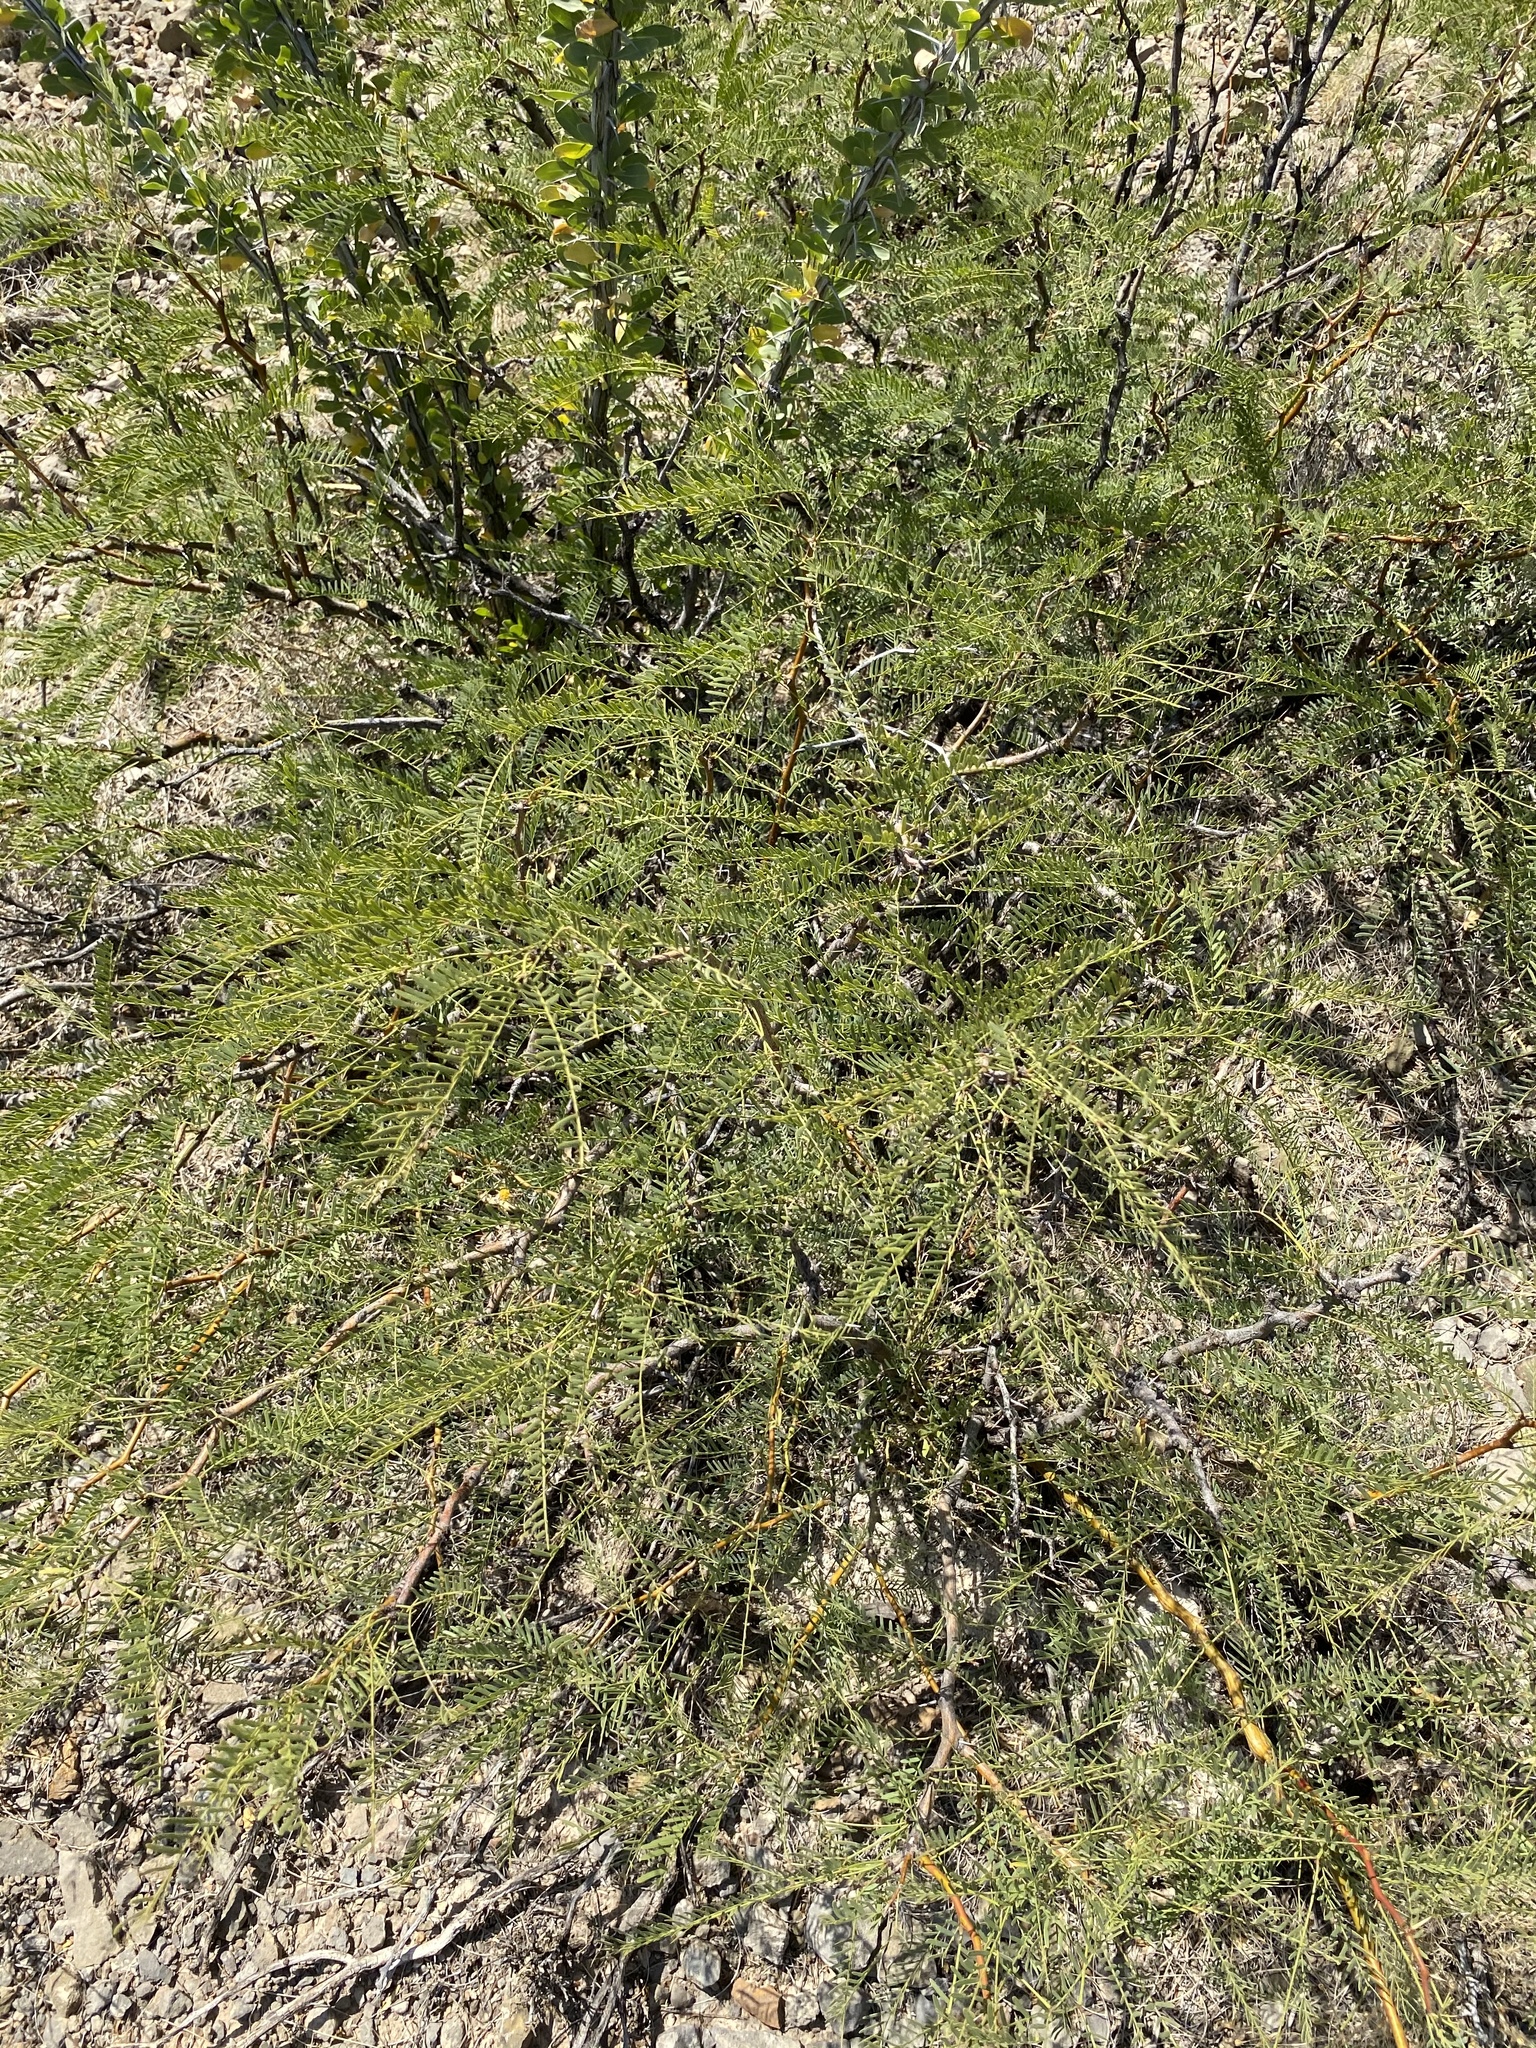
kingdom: Plantae
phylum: Tracheophyta
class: Magnoliopsida
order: Fabales
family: Fabaceae
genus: Prosopis
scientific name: Prosopis glandulosa
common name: Honey mesquite
